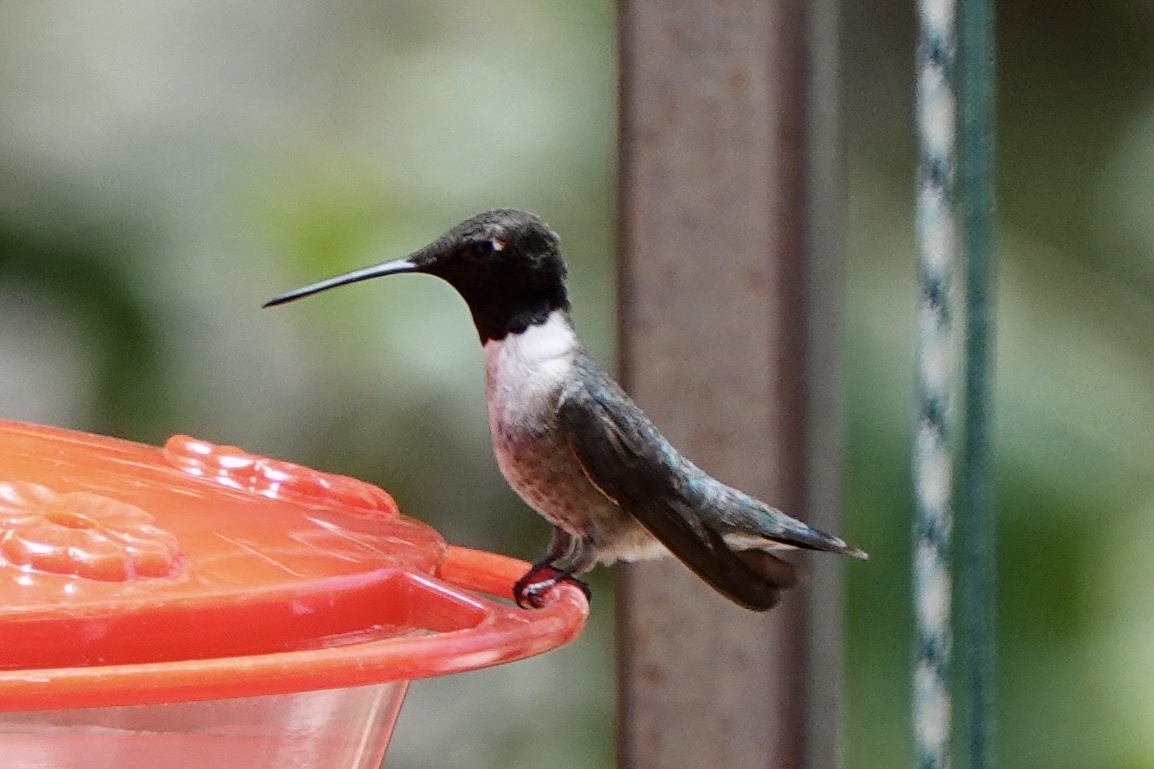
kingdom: Animalia
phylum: Chordata
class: Aves
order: Apodiformes
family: Trochilidae
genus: Archilochus
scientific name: Archilochus alexandri
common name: Black-chinned hummingbird
